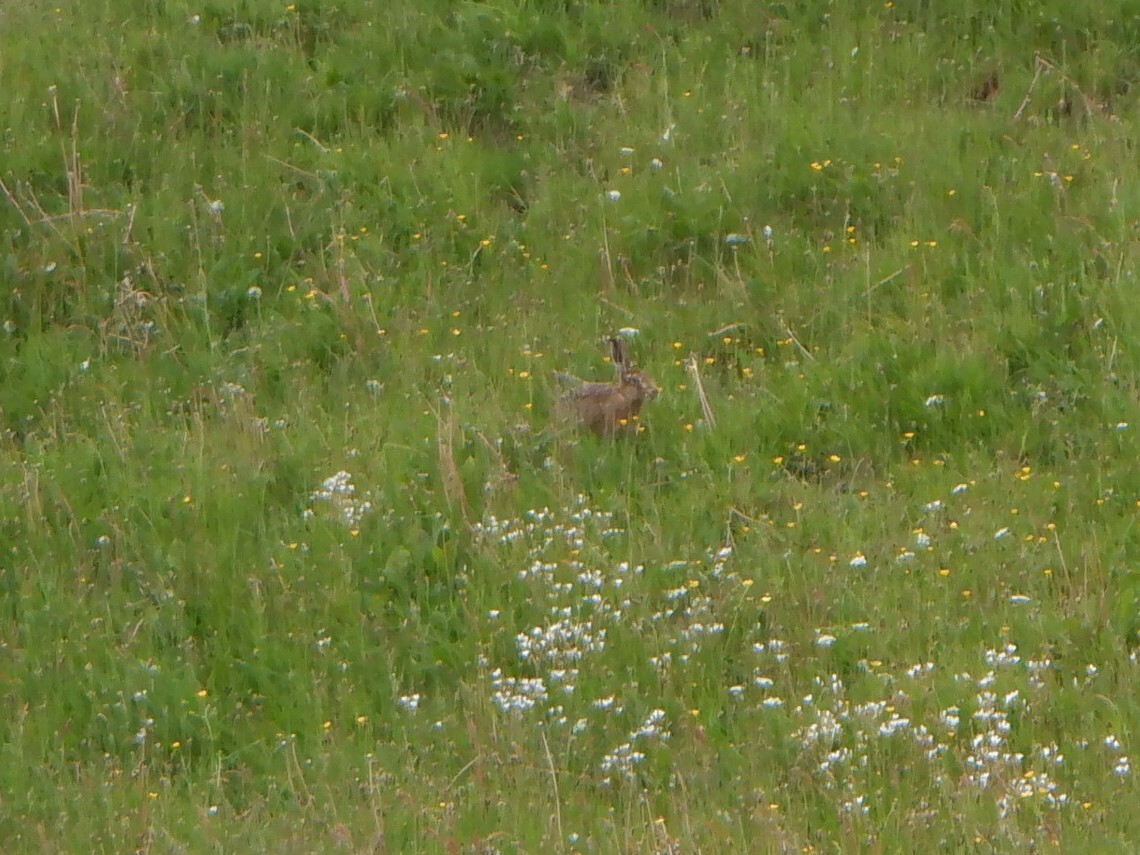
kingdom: Animalia
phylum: Chordata
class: Mammalia
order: Lagomorpha
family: Leporidae
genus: Lepus
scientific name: Lepus europaeus
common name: European hare
